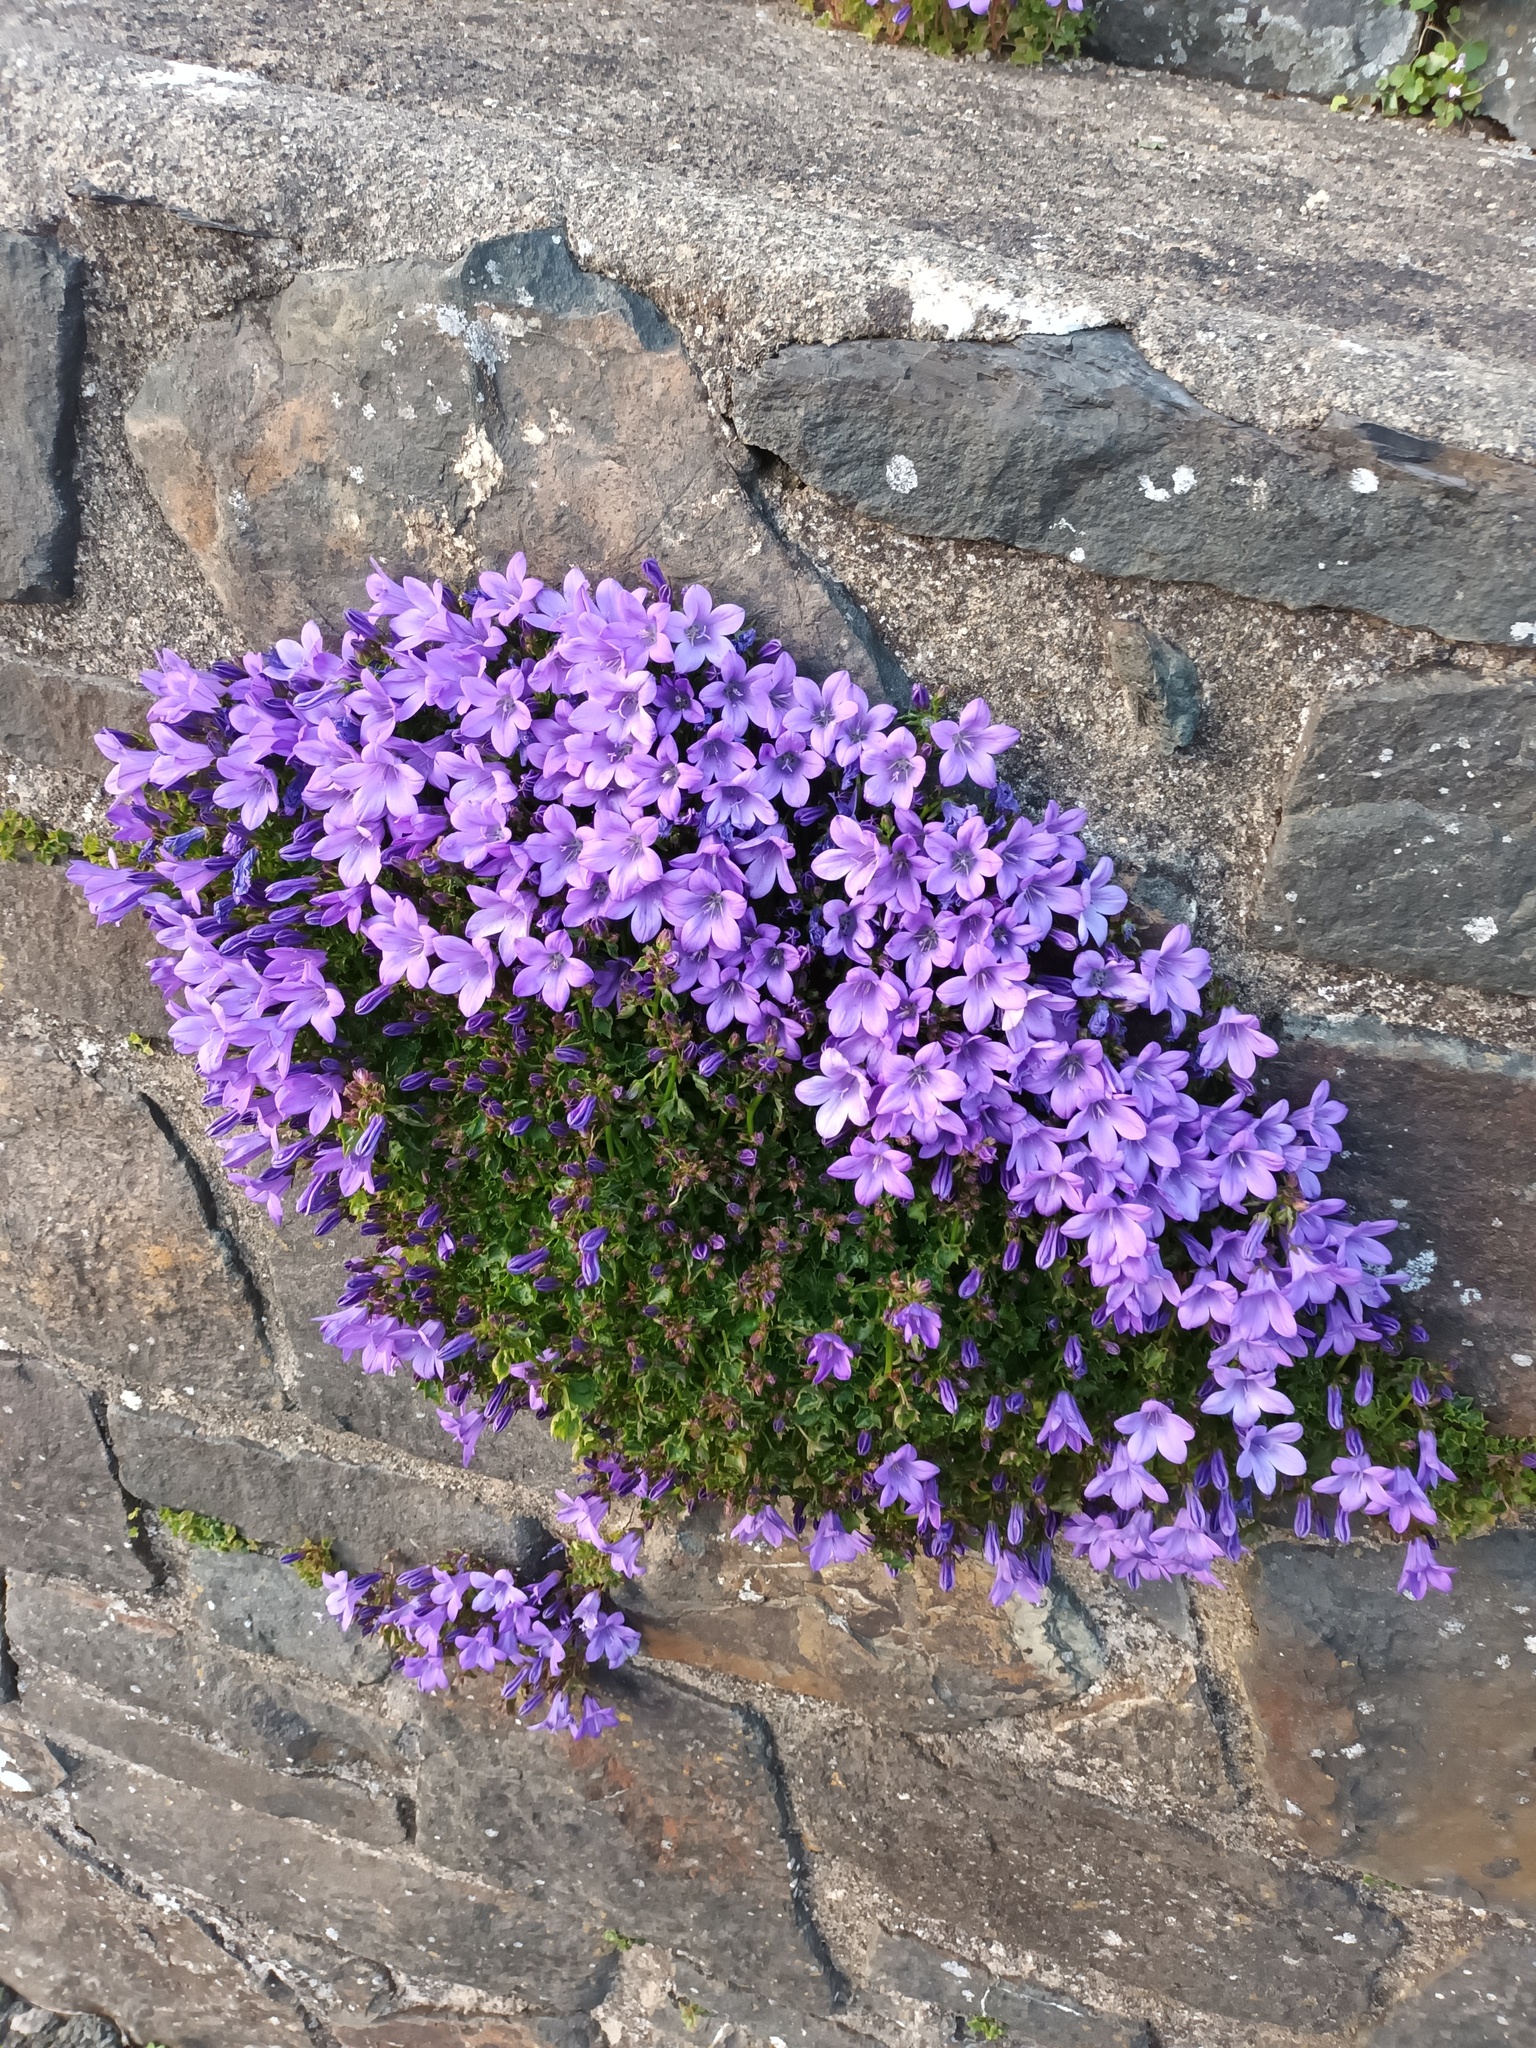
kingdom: Plantae
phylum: Tracheophyta
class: Magnoliopsida
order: Asterales
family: Campanulaceae
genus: Campanula
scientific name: Campanula portenschlagiana
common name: Adria bellflower
